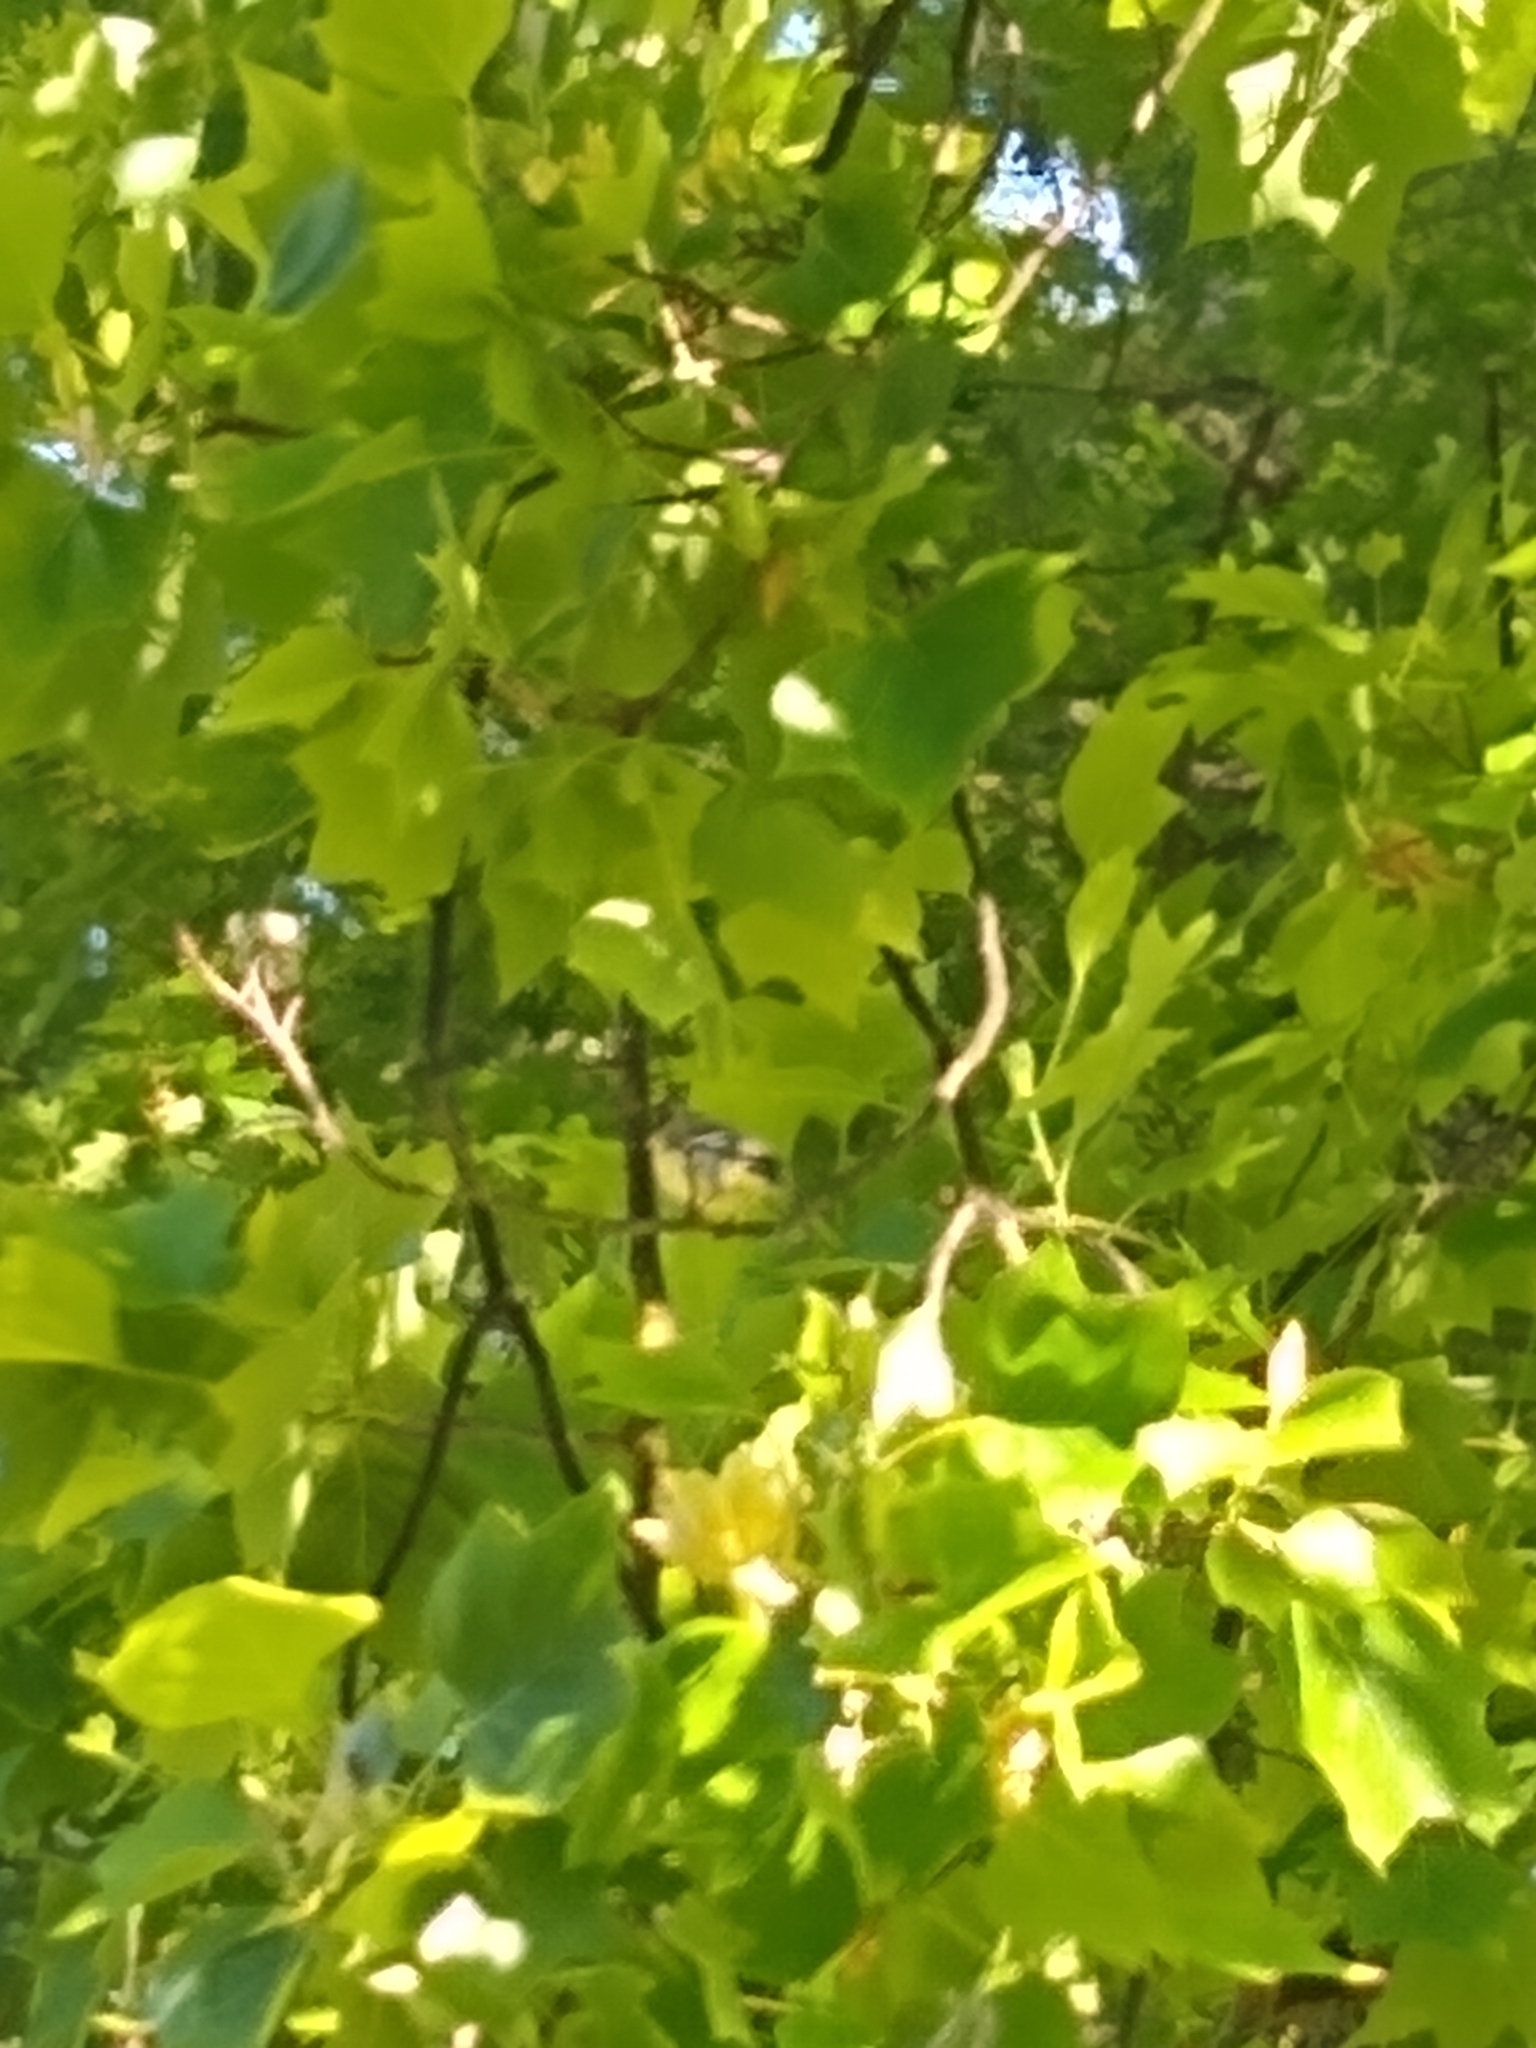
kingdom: Animalia
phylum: Chordata
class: Aves
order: Passeriformes
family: Fringillidae
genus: Spinus
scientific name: Spinus psaltria
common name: Lesser goldfinch
